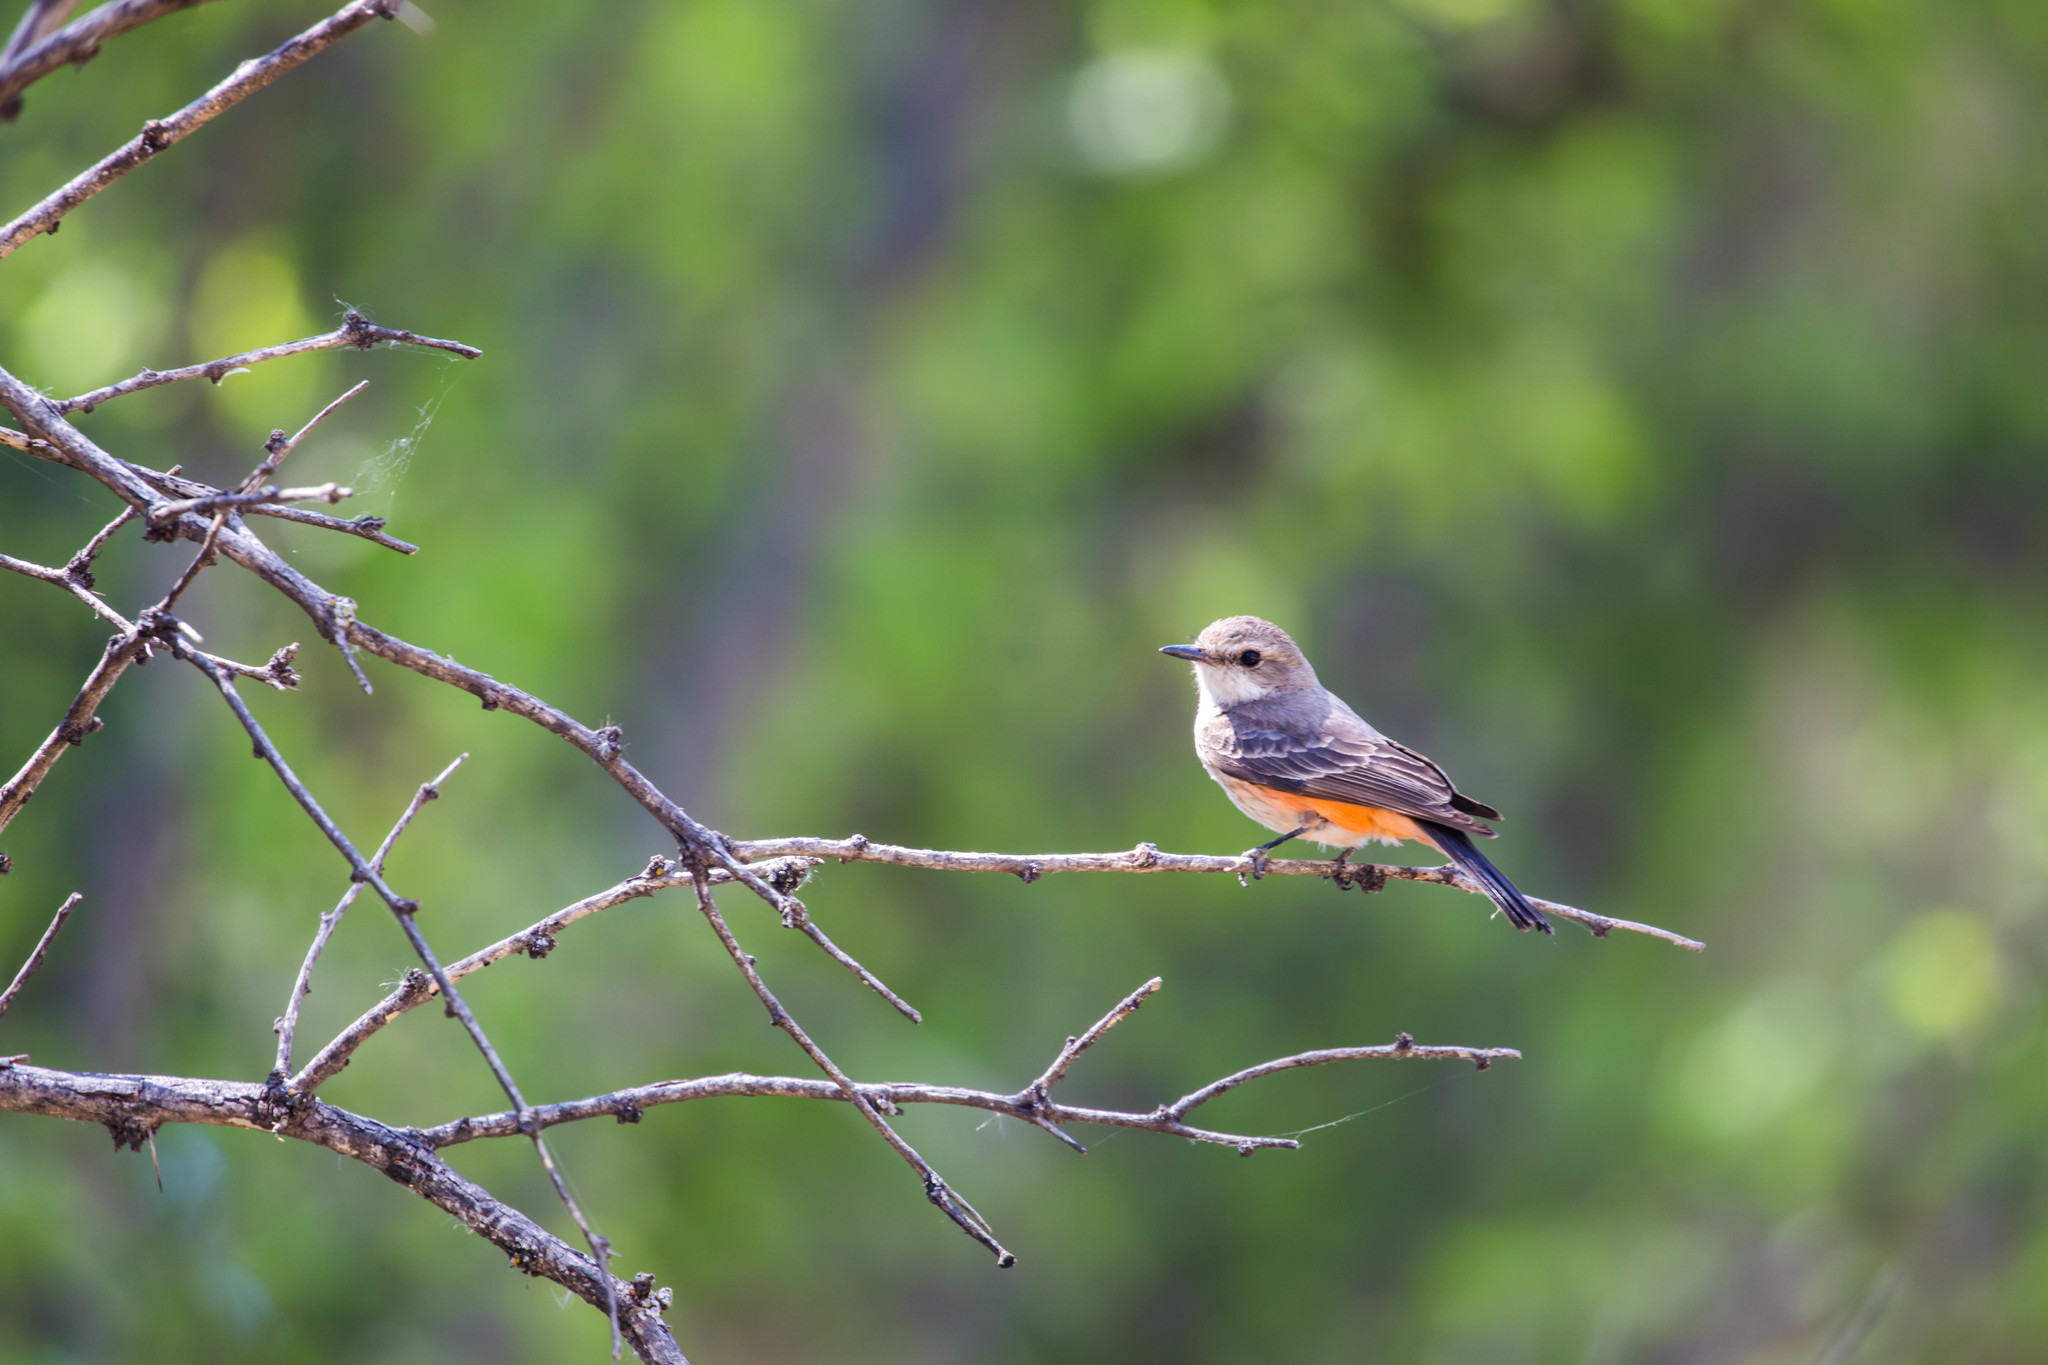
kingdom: Animalia
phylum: Chordata
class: Aves
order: Passeriformes
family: Tyrannidae
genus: Pyrocephalus
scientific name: Pyrocephalus rubinus
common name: Vermilion flycatcher
